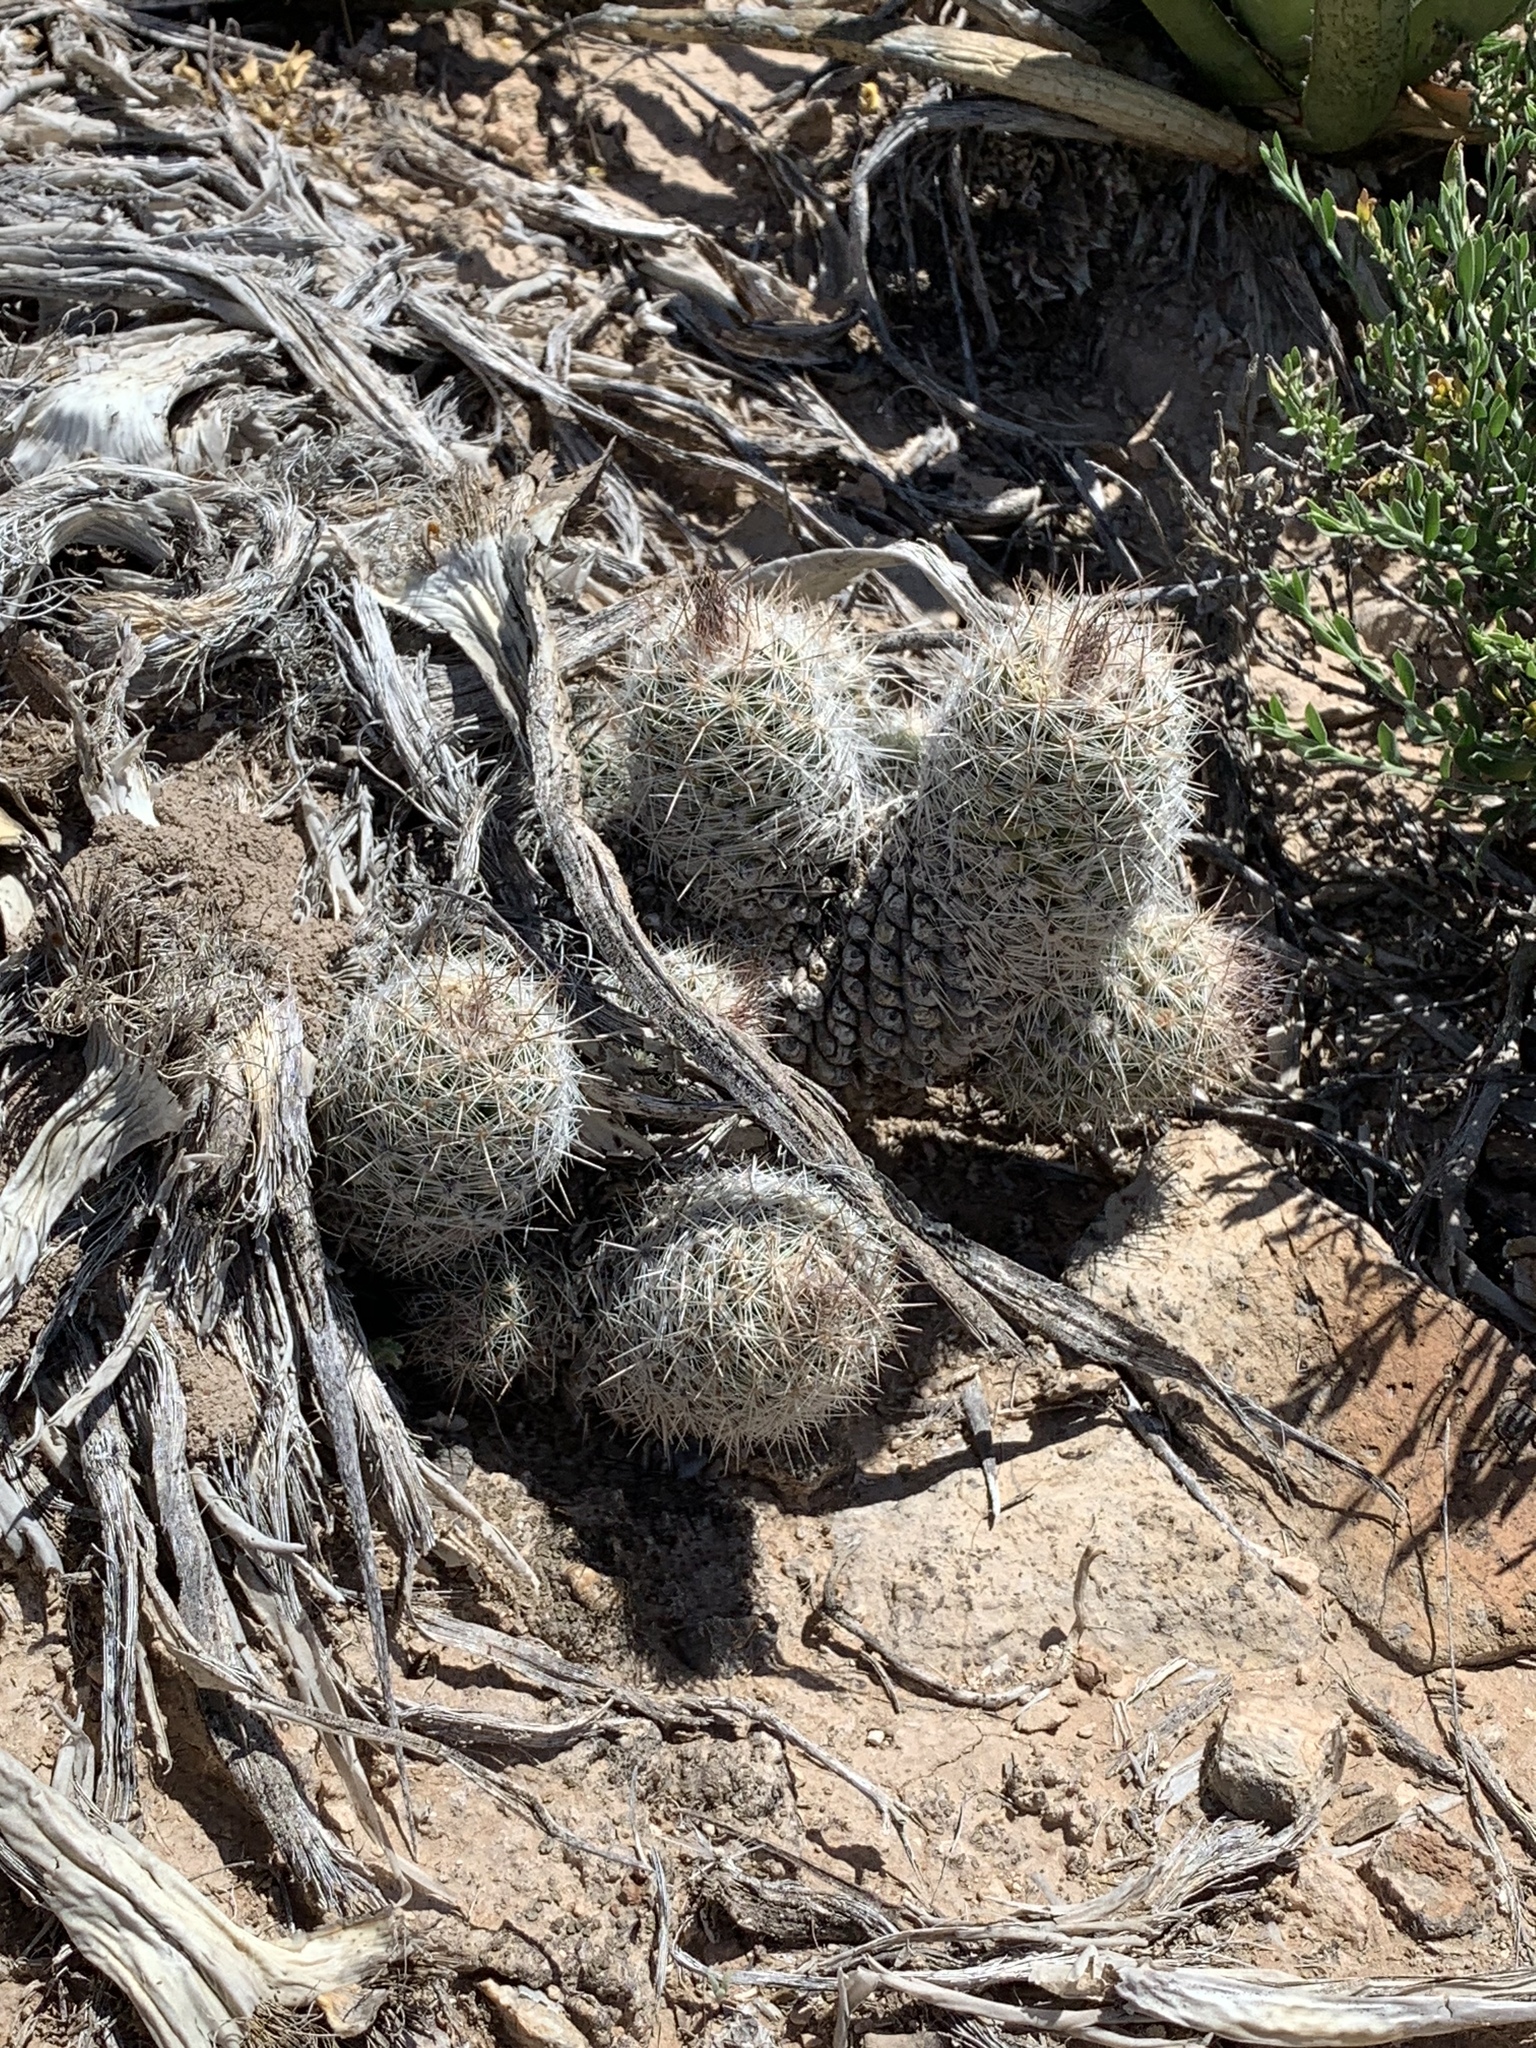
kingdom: Plantae
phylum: Tracheophyta
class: Magnoliopsida
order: Caryophyllales
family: Cactaceae
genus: Pelecyphora
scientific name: Pelecyphora tuberculosa
